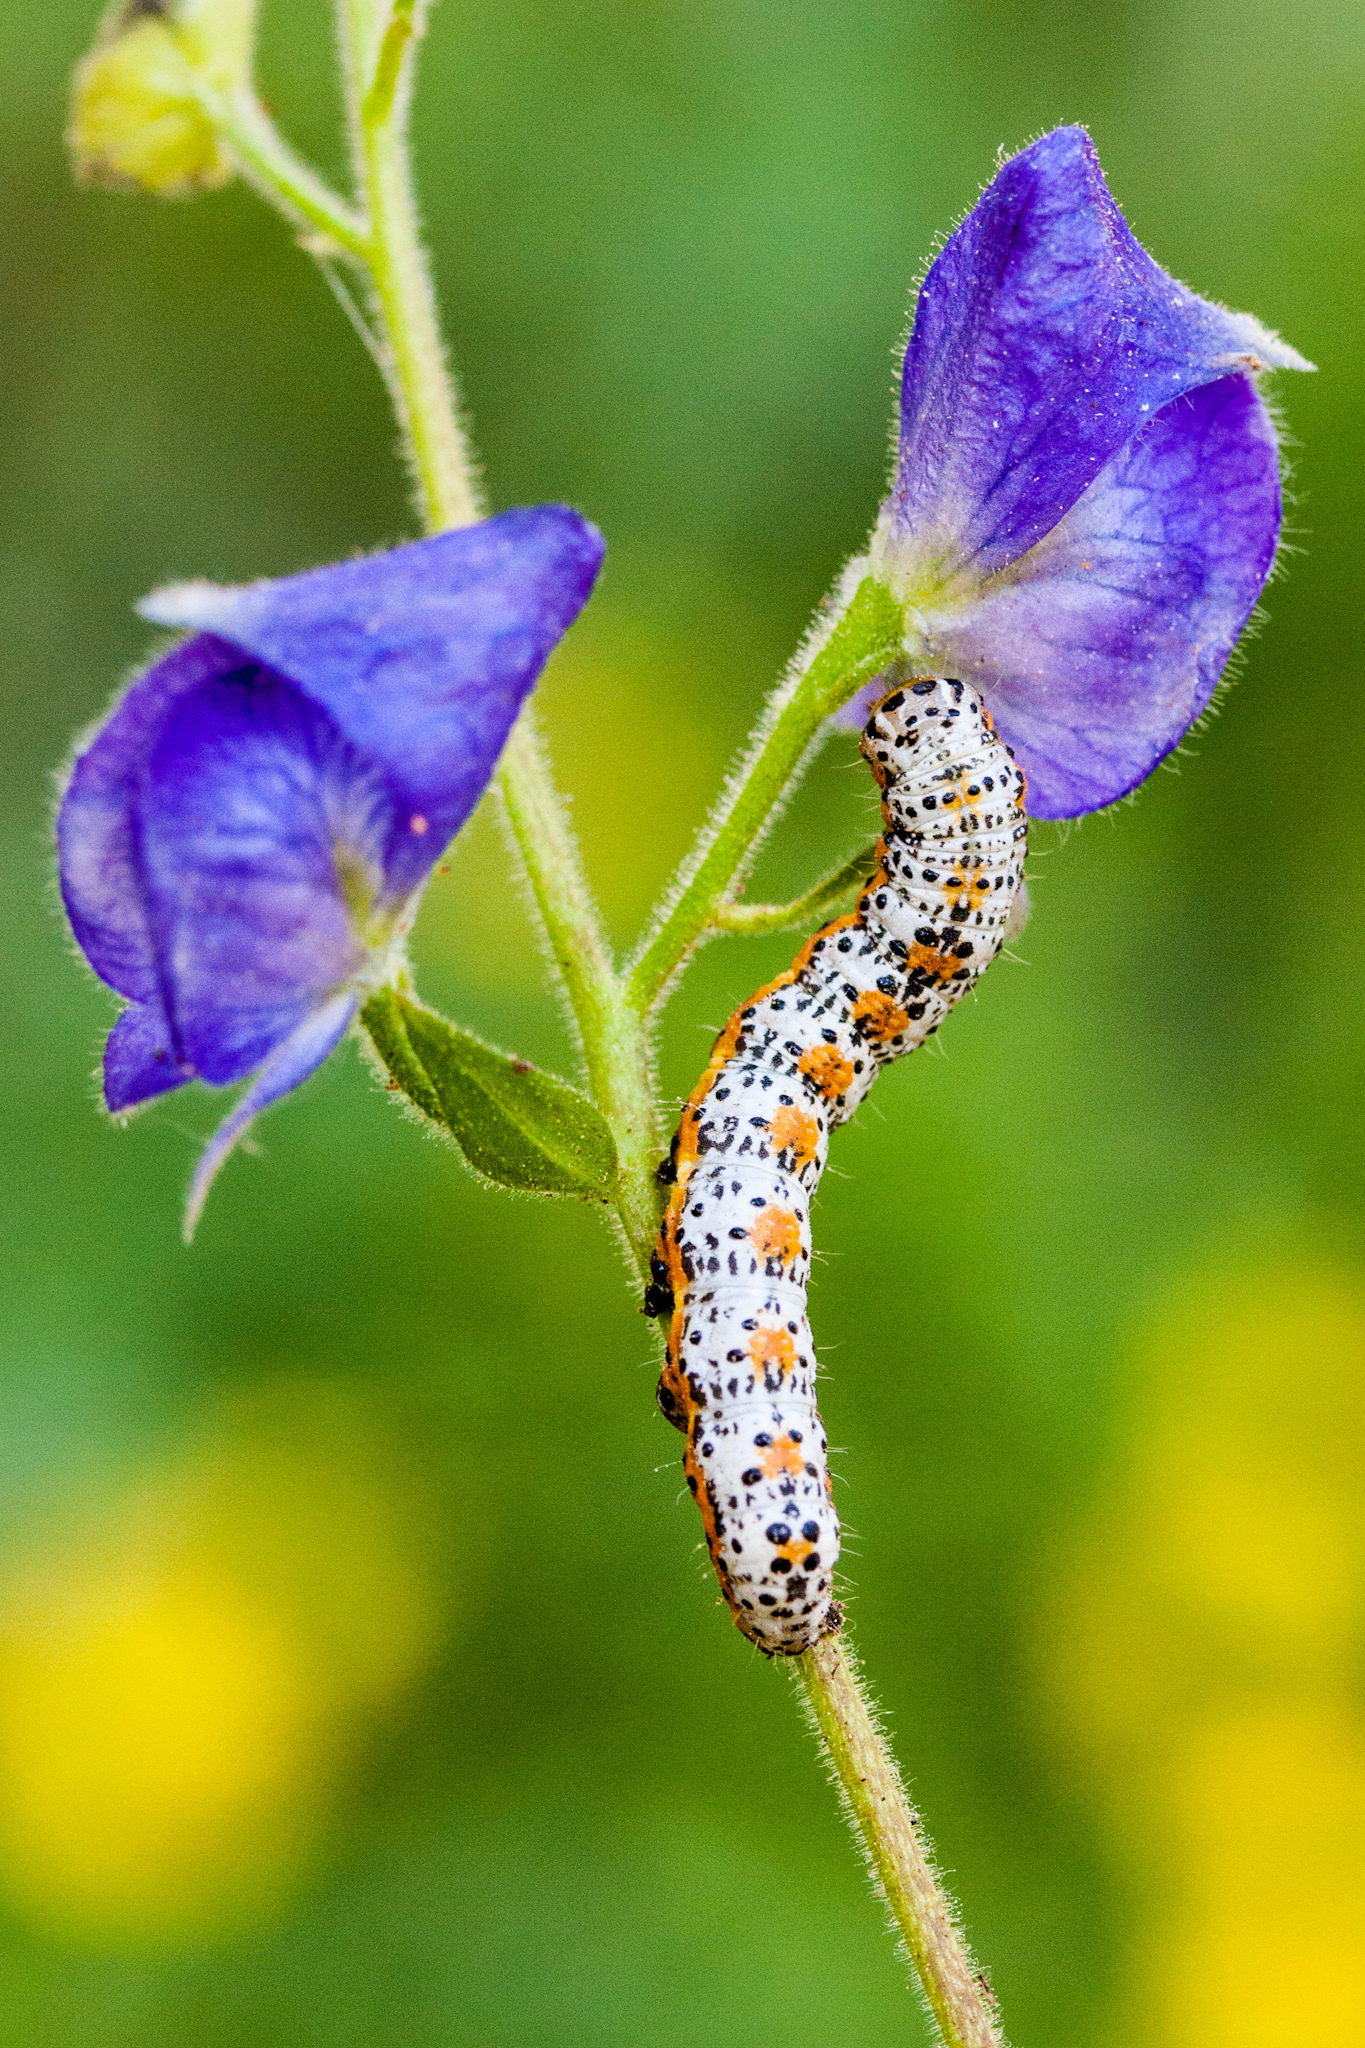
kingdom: Animalia
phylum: Arthropoda
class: Insecta
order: Lepidoptera
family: Noctuidae
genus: Pyrrhia
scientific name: Pyrrhia exprimens
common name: Purple-lined sallow
